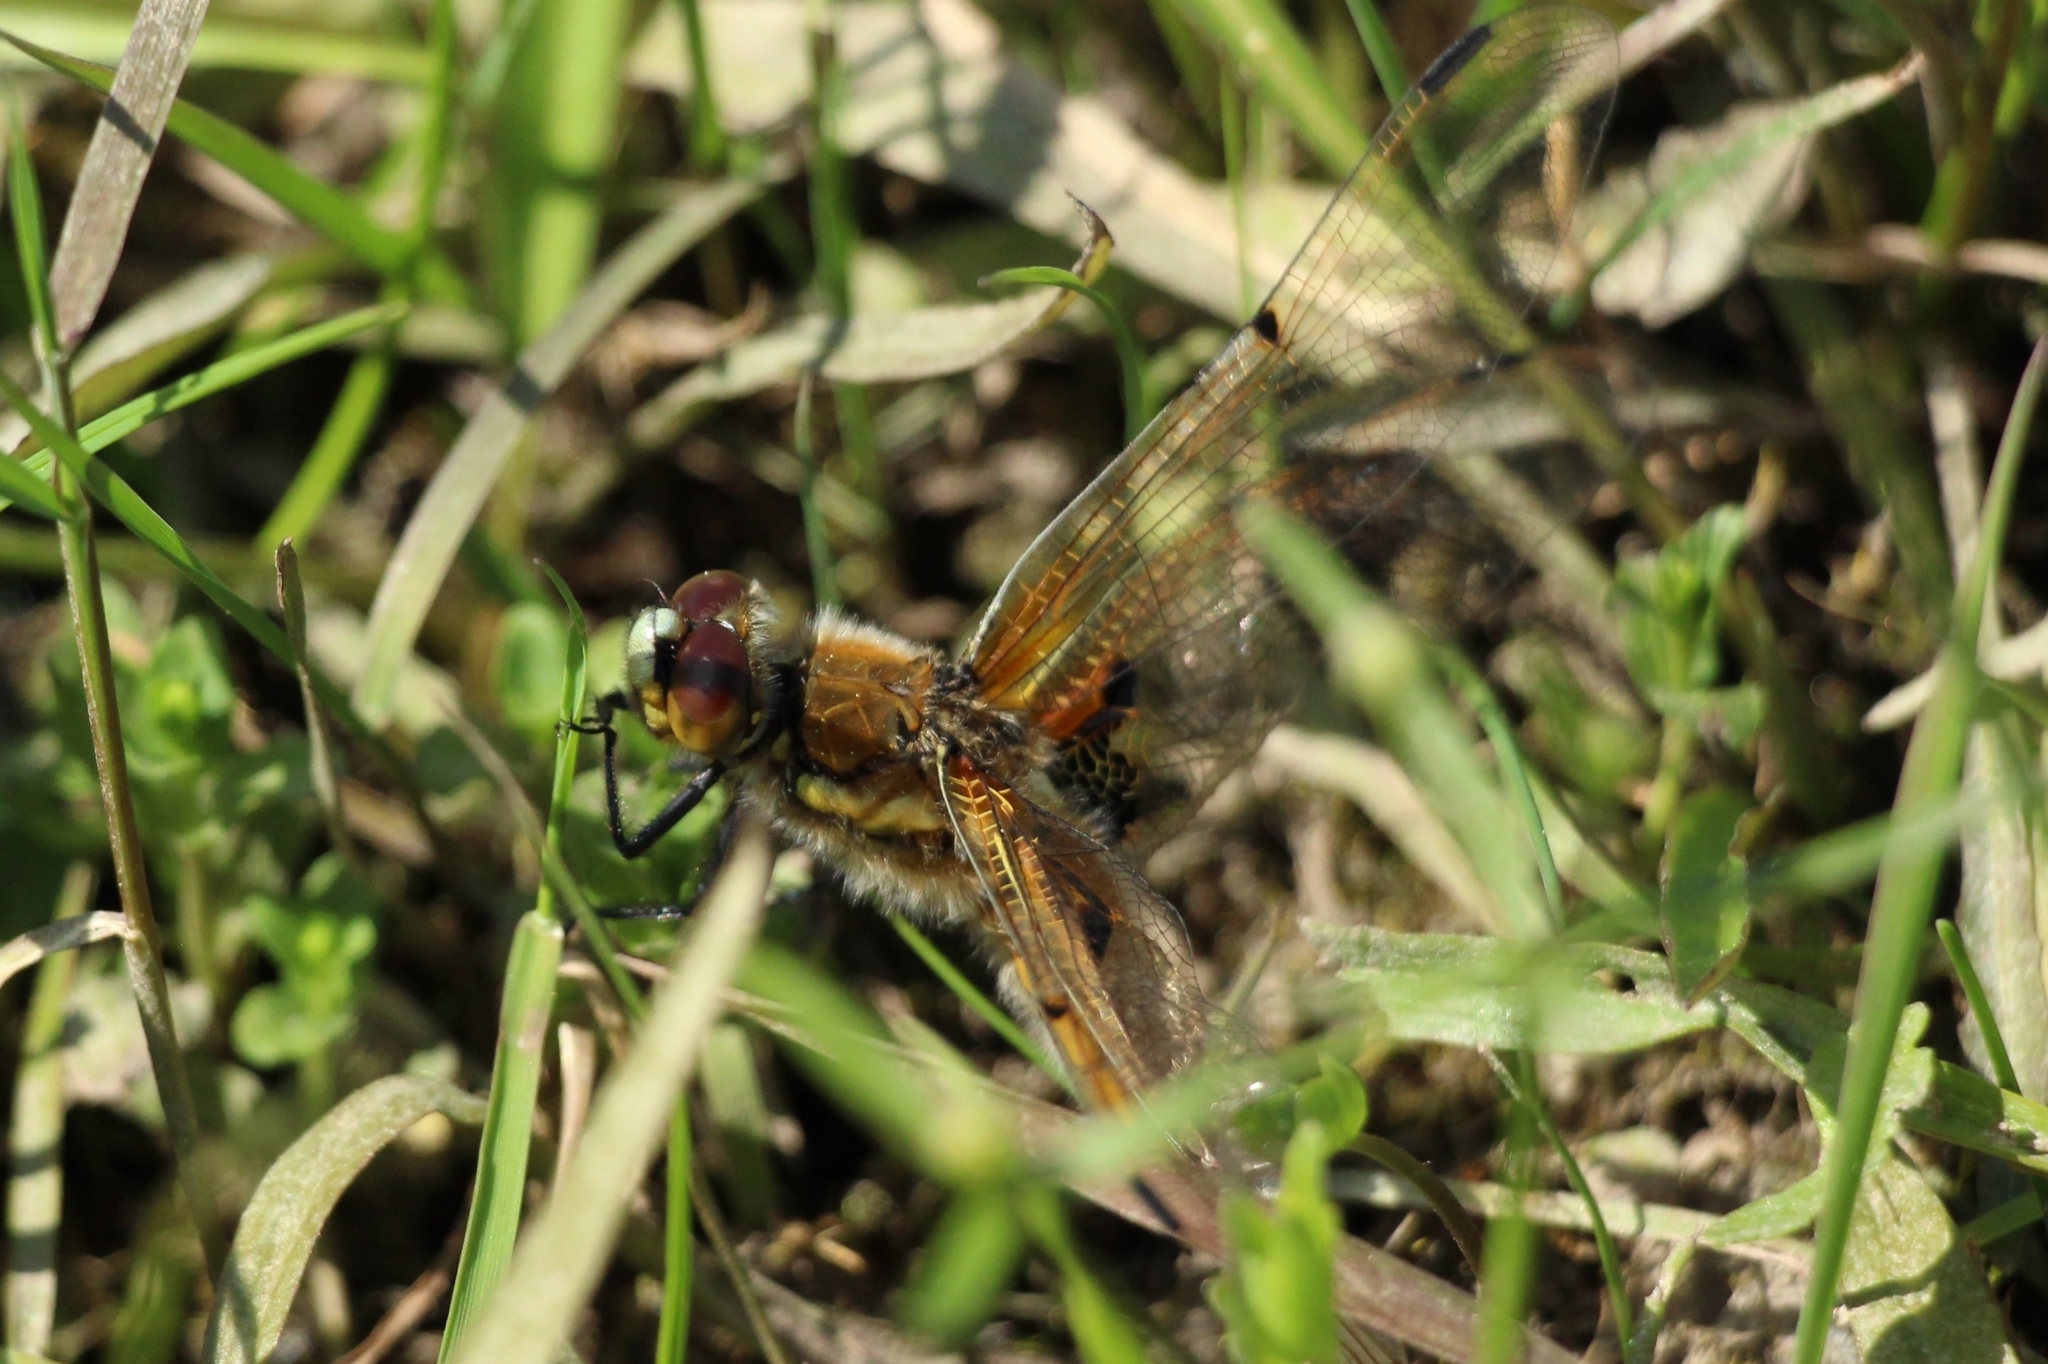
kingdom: Animalia
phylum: Arthropoda
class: Insecta
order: Odonata
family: Libellulidae
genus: Libellula
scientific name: Libellula quadrimaculata
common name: Four-spotted chaser
